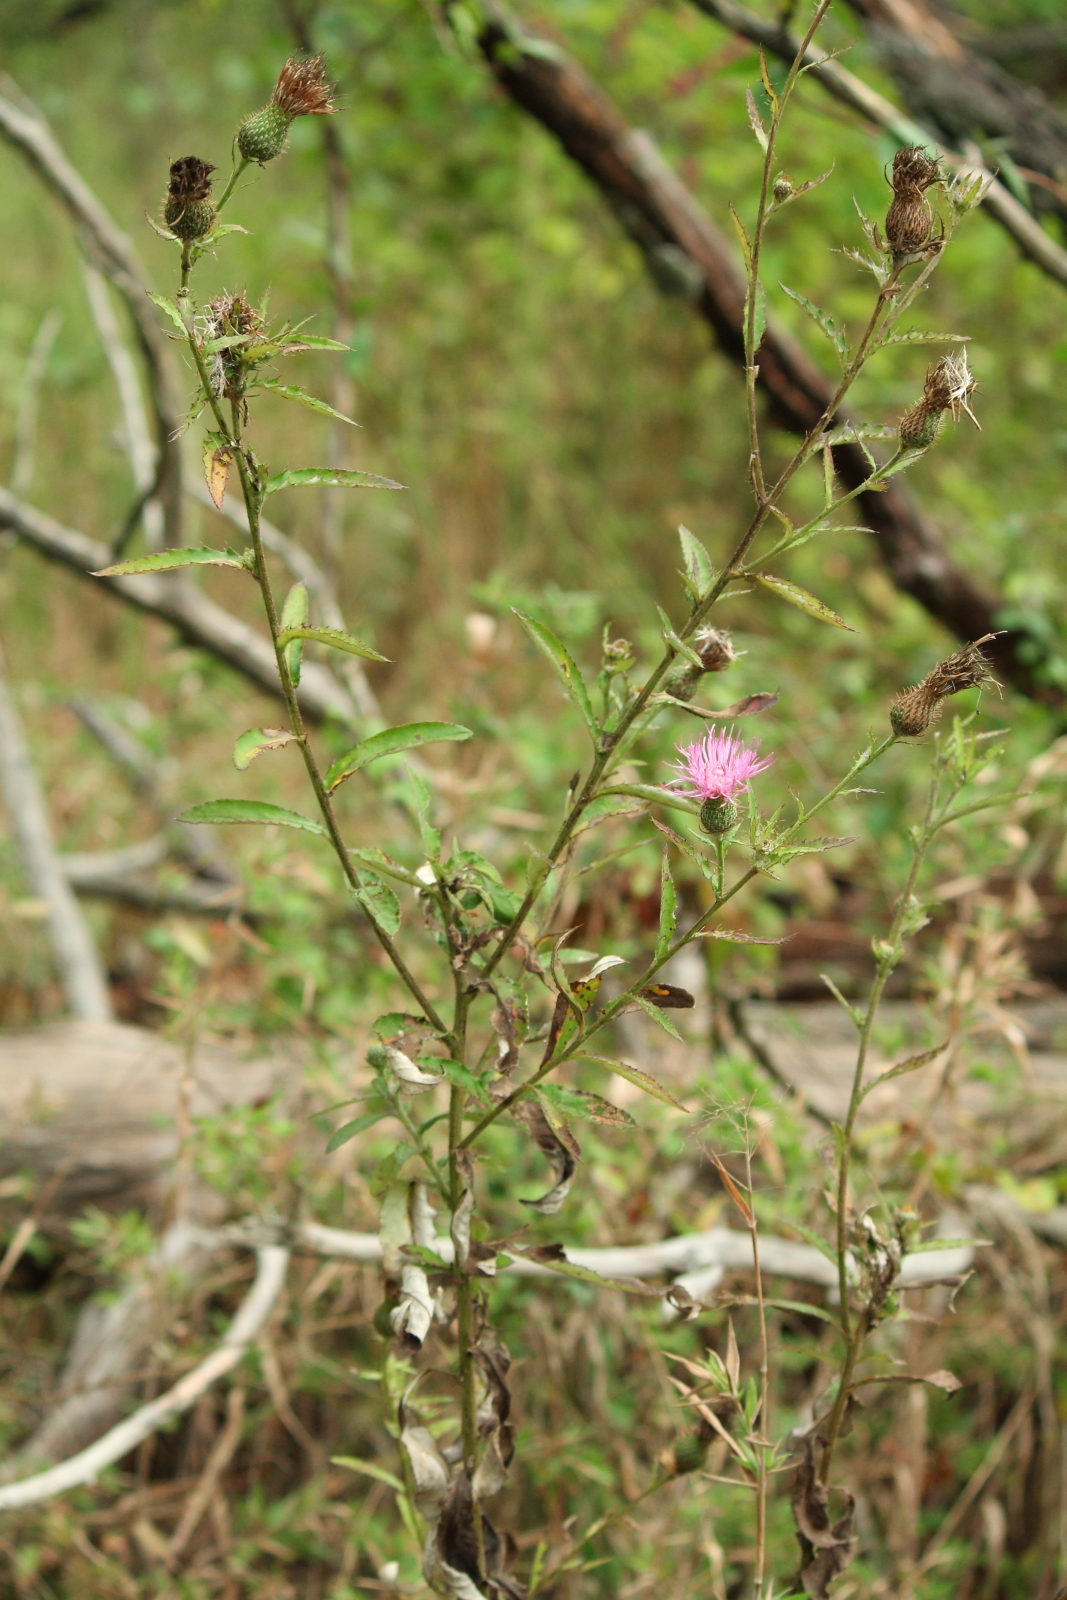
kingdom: Plantae
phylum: Tracheophyta
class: Magnoliopsida
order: Asterales
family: Asteraceae
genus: Cirsium
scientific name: Cirsium altissimum
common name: Roadside thistle
